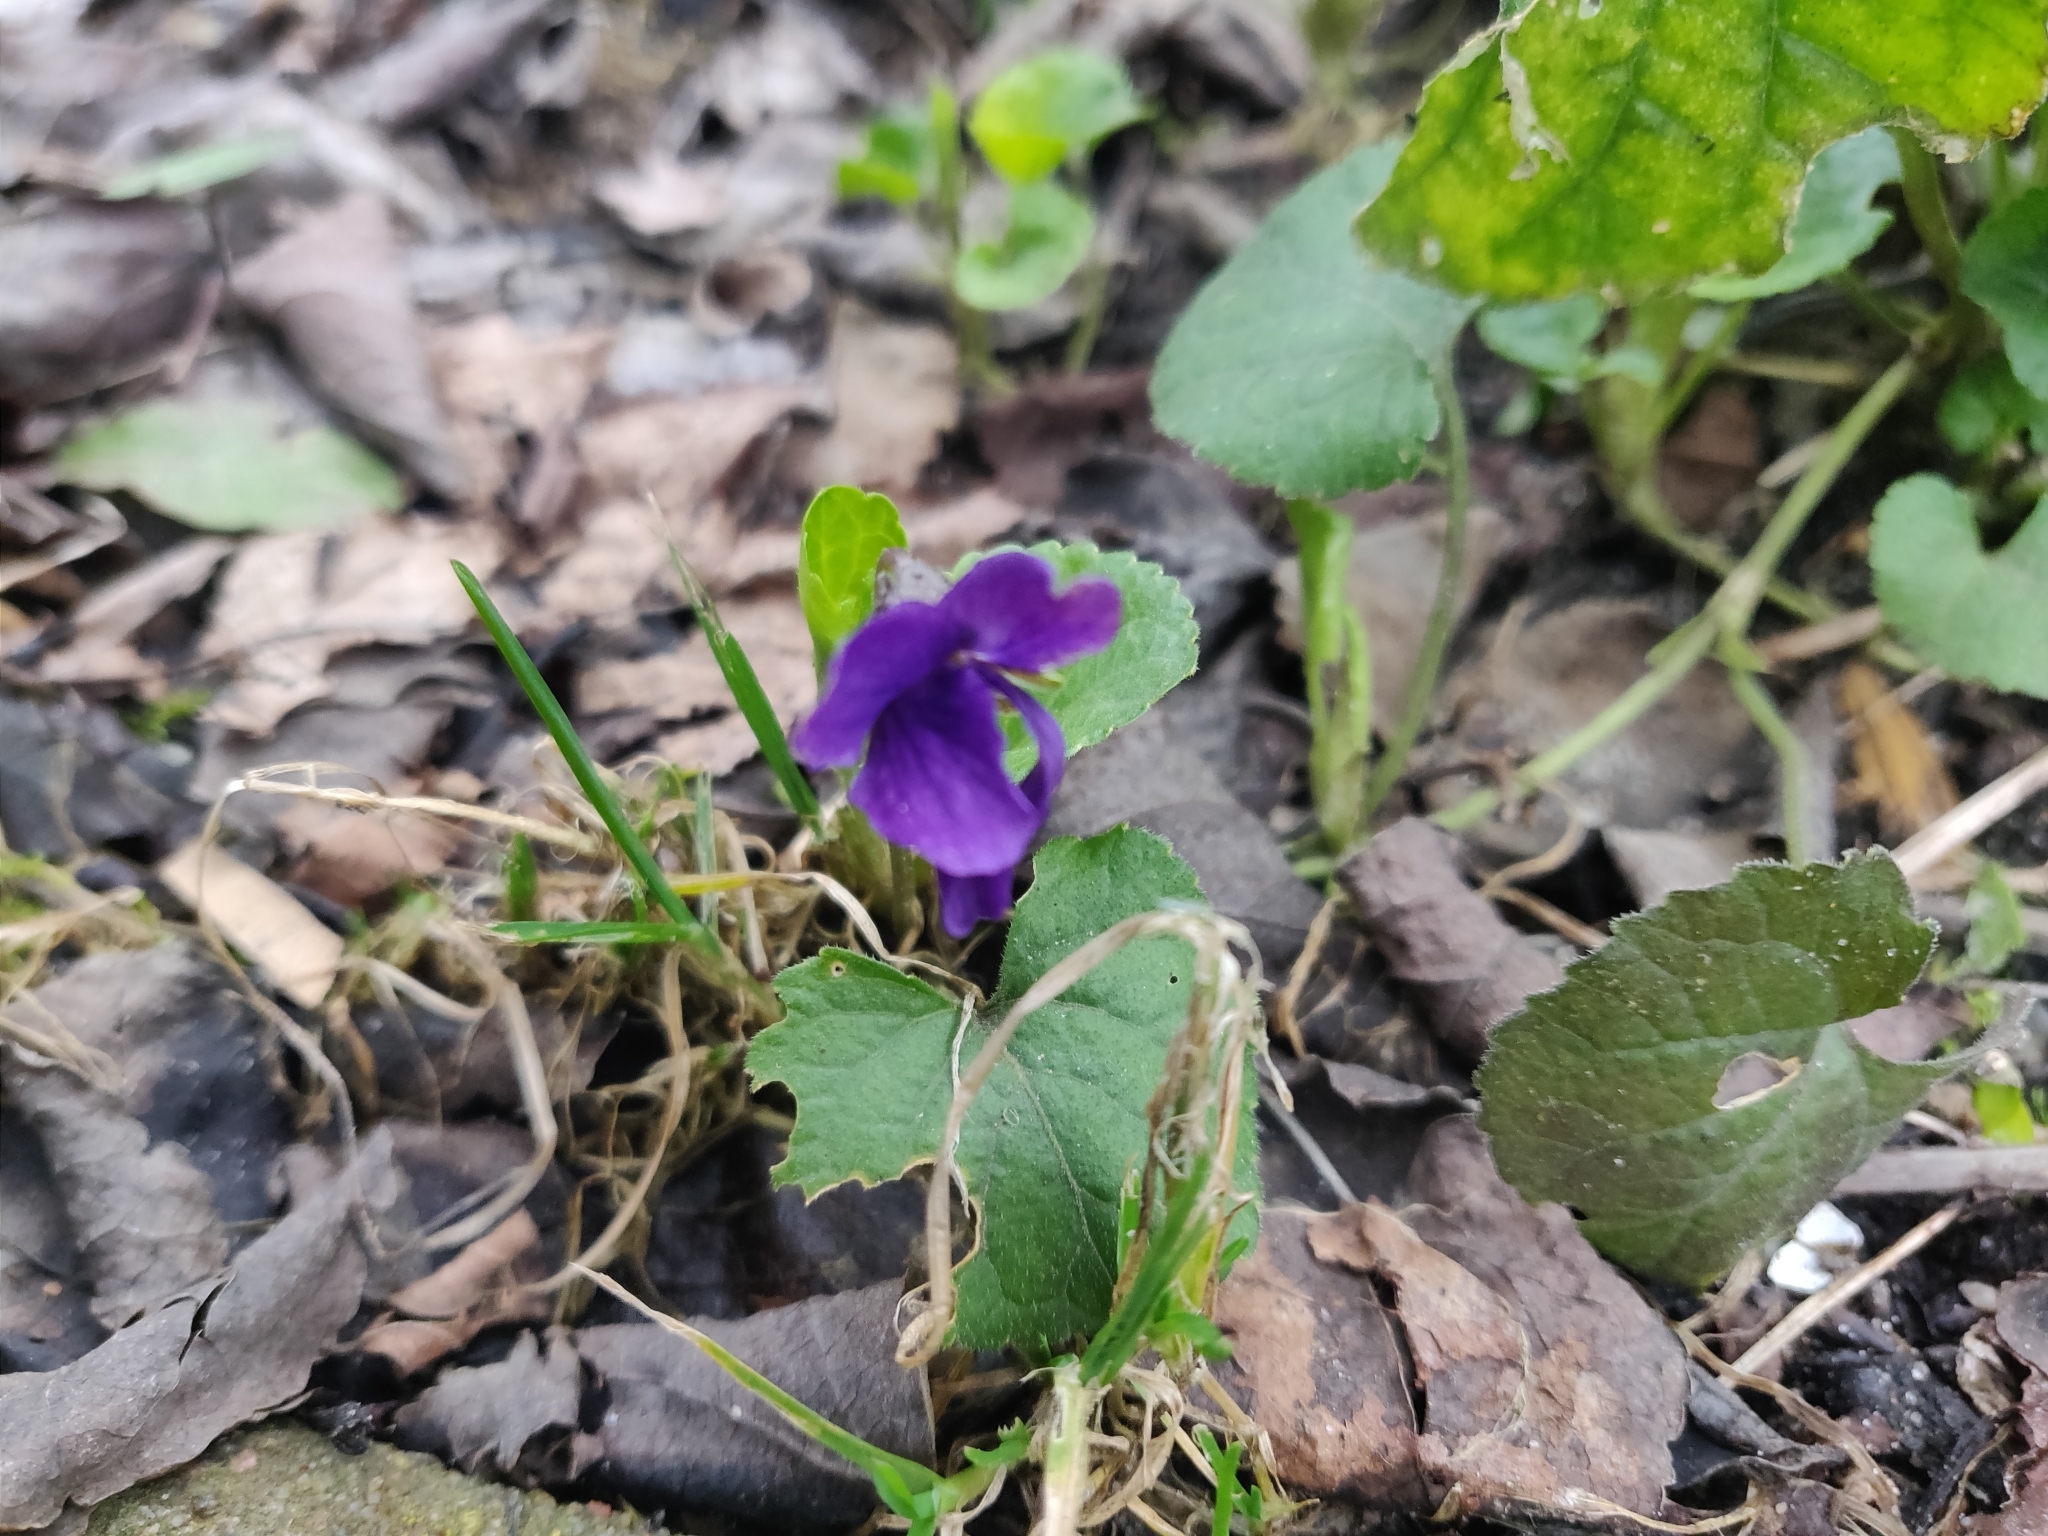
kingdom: Plantae
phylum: Tracheophyta
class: Magnoliopsida
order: Malpighiales
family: Violaceae
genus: Viola
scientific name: Viola odorata
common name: Sweet violet
